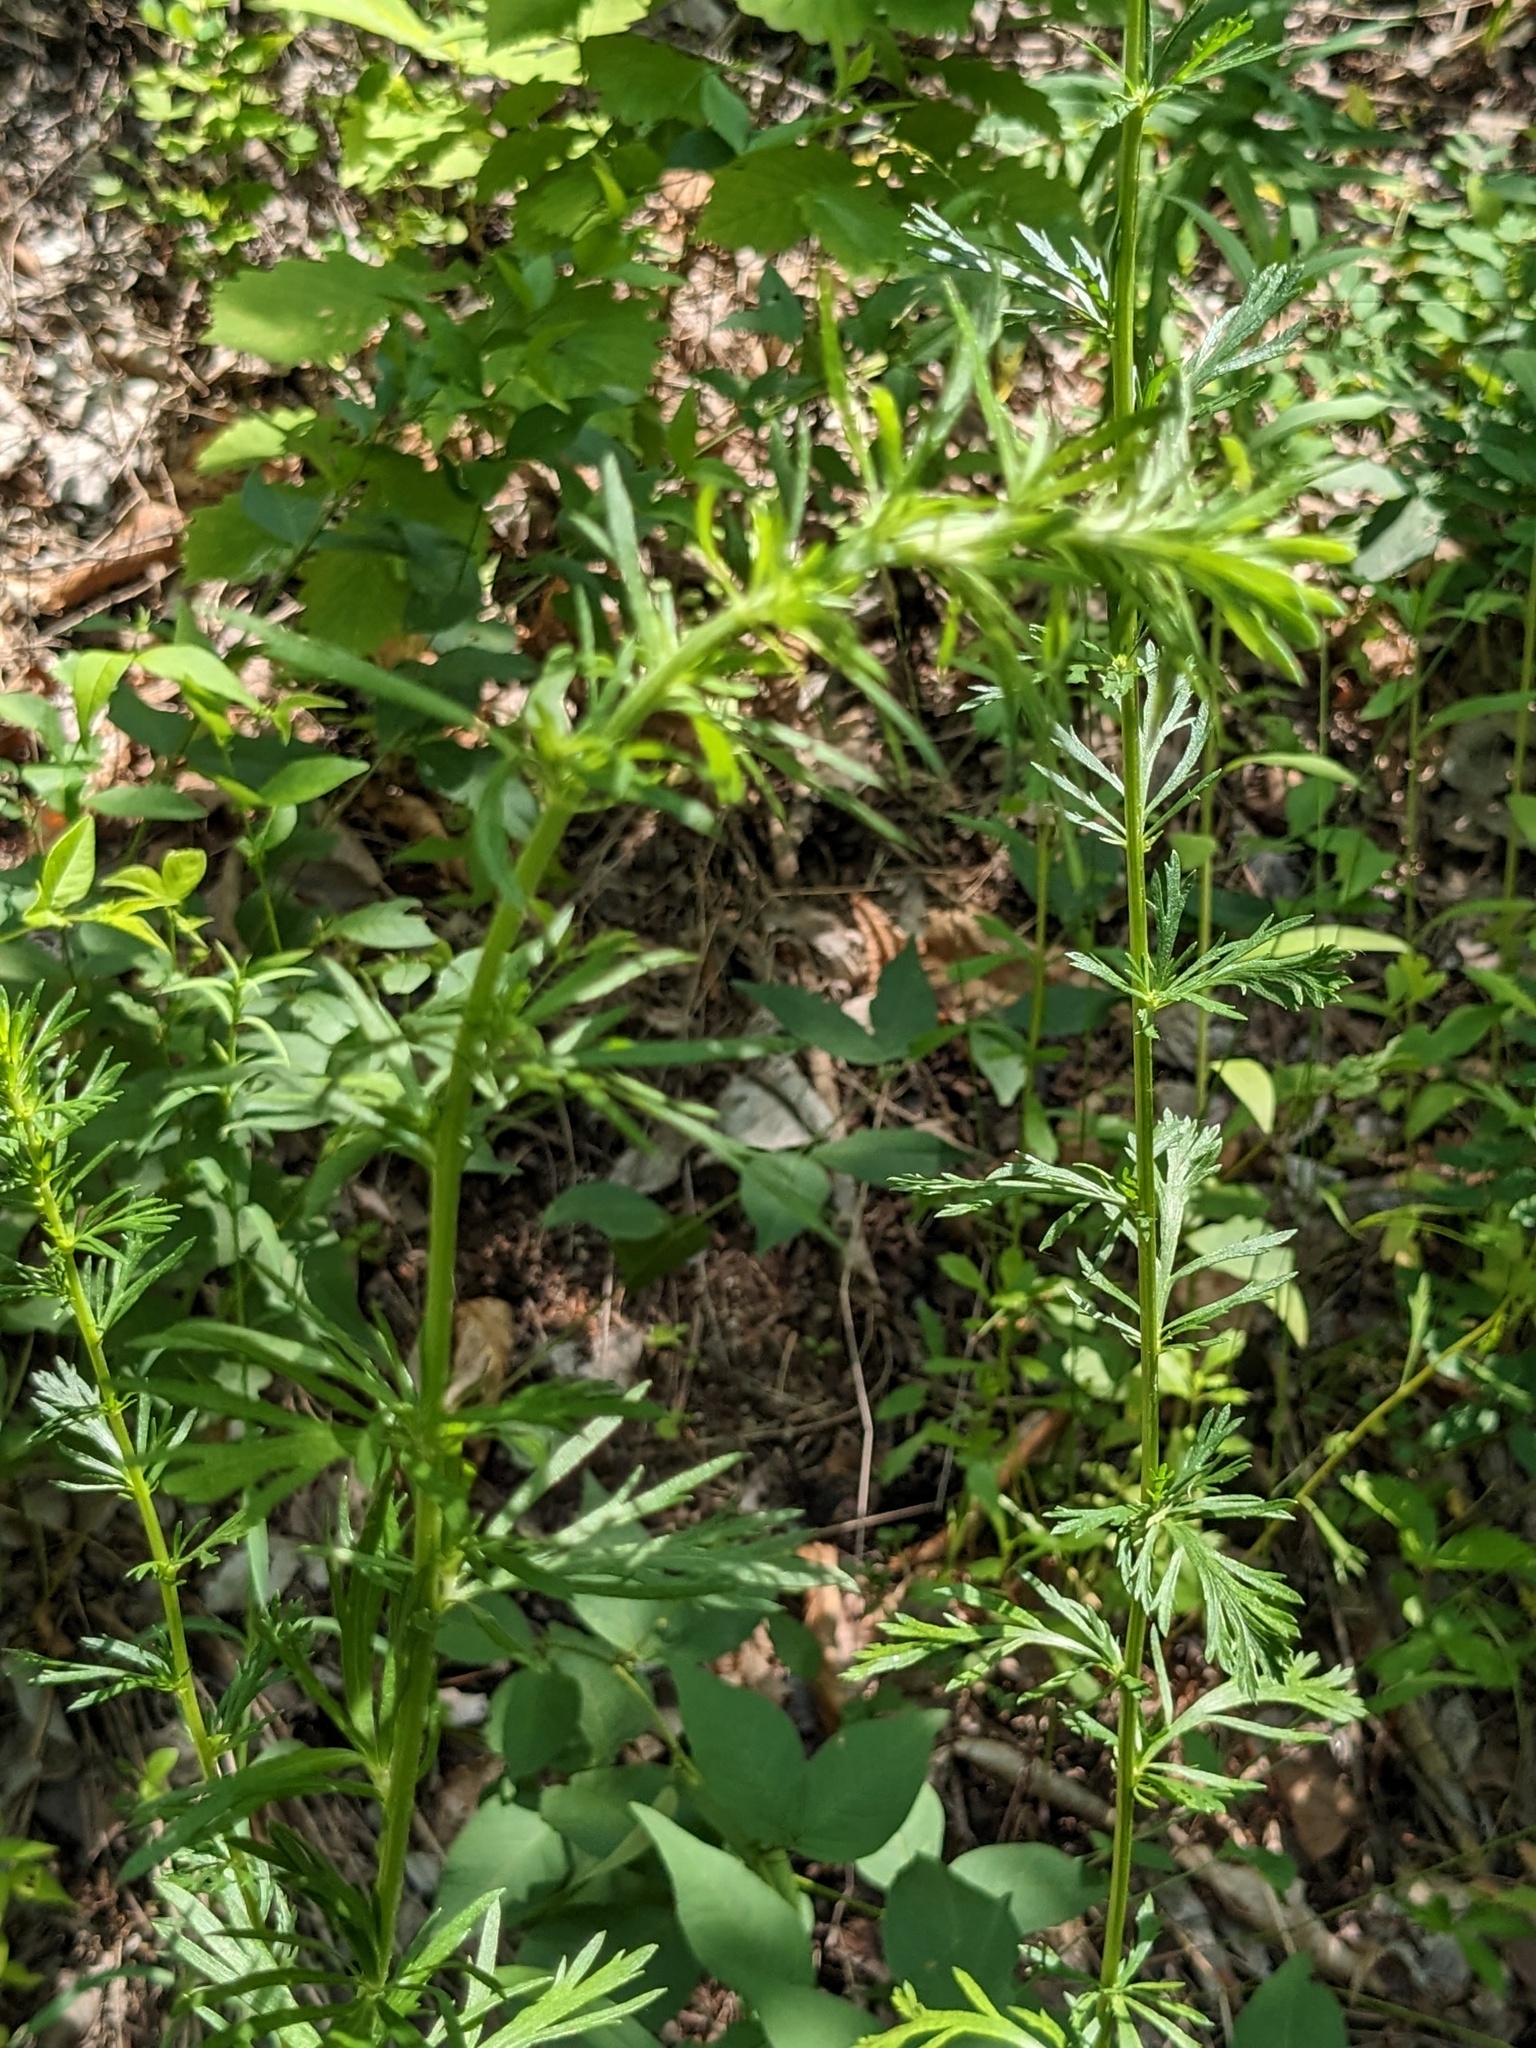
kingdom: Plantae
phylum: Tracheophyta
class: Magnoliopsida
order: Asterales
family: Asteraceae
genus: Artemisia
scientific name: Artemisia manshurica
